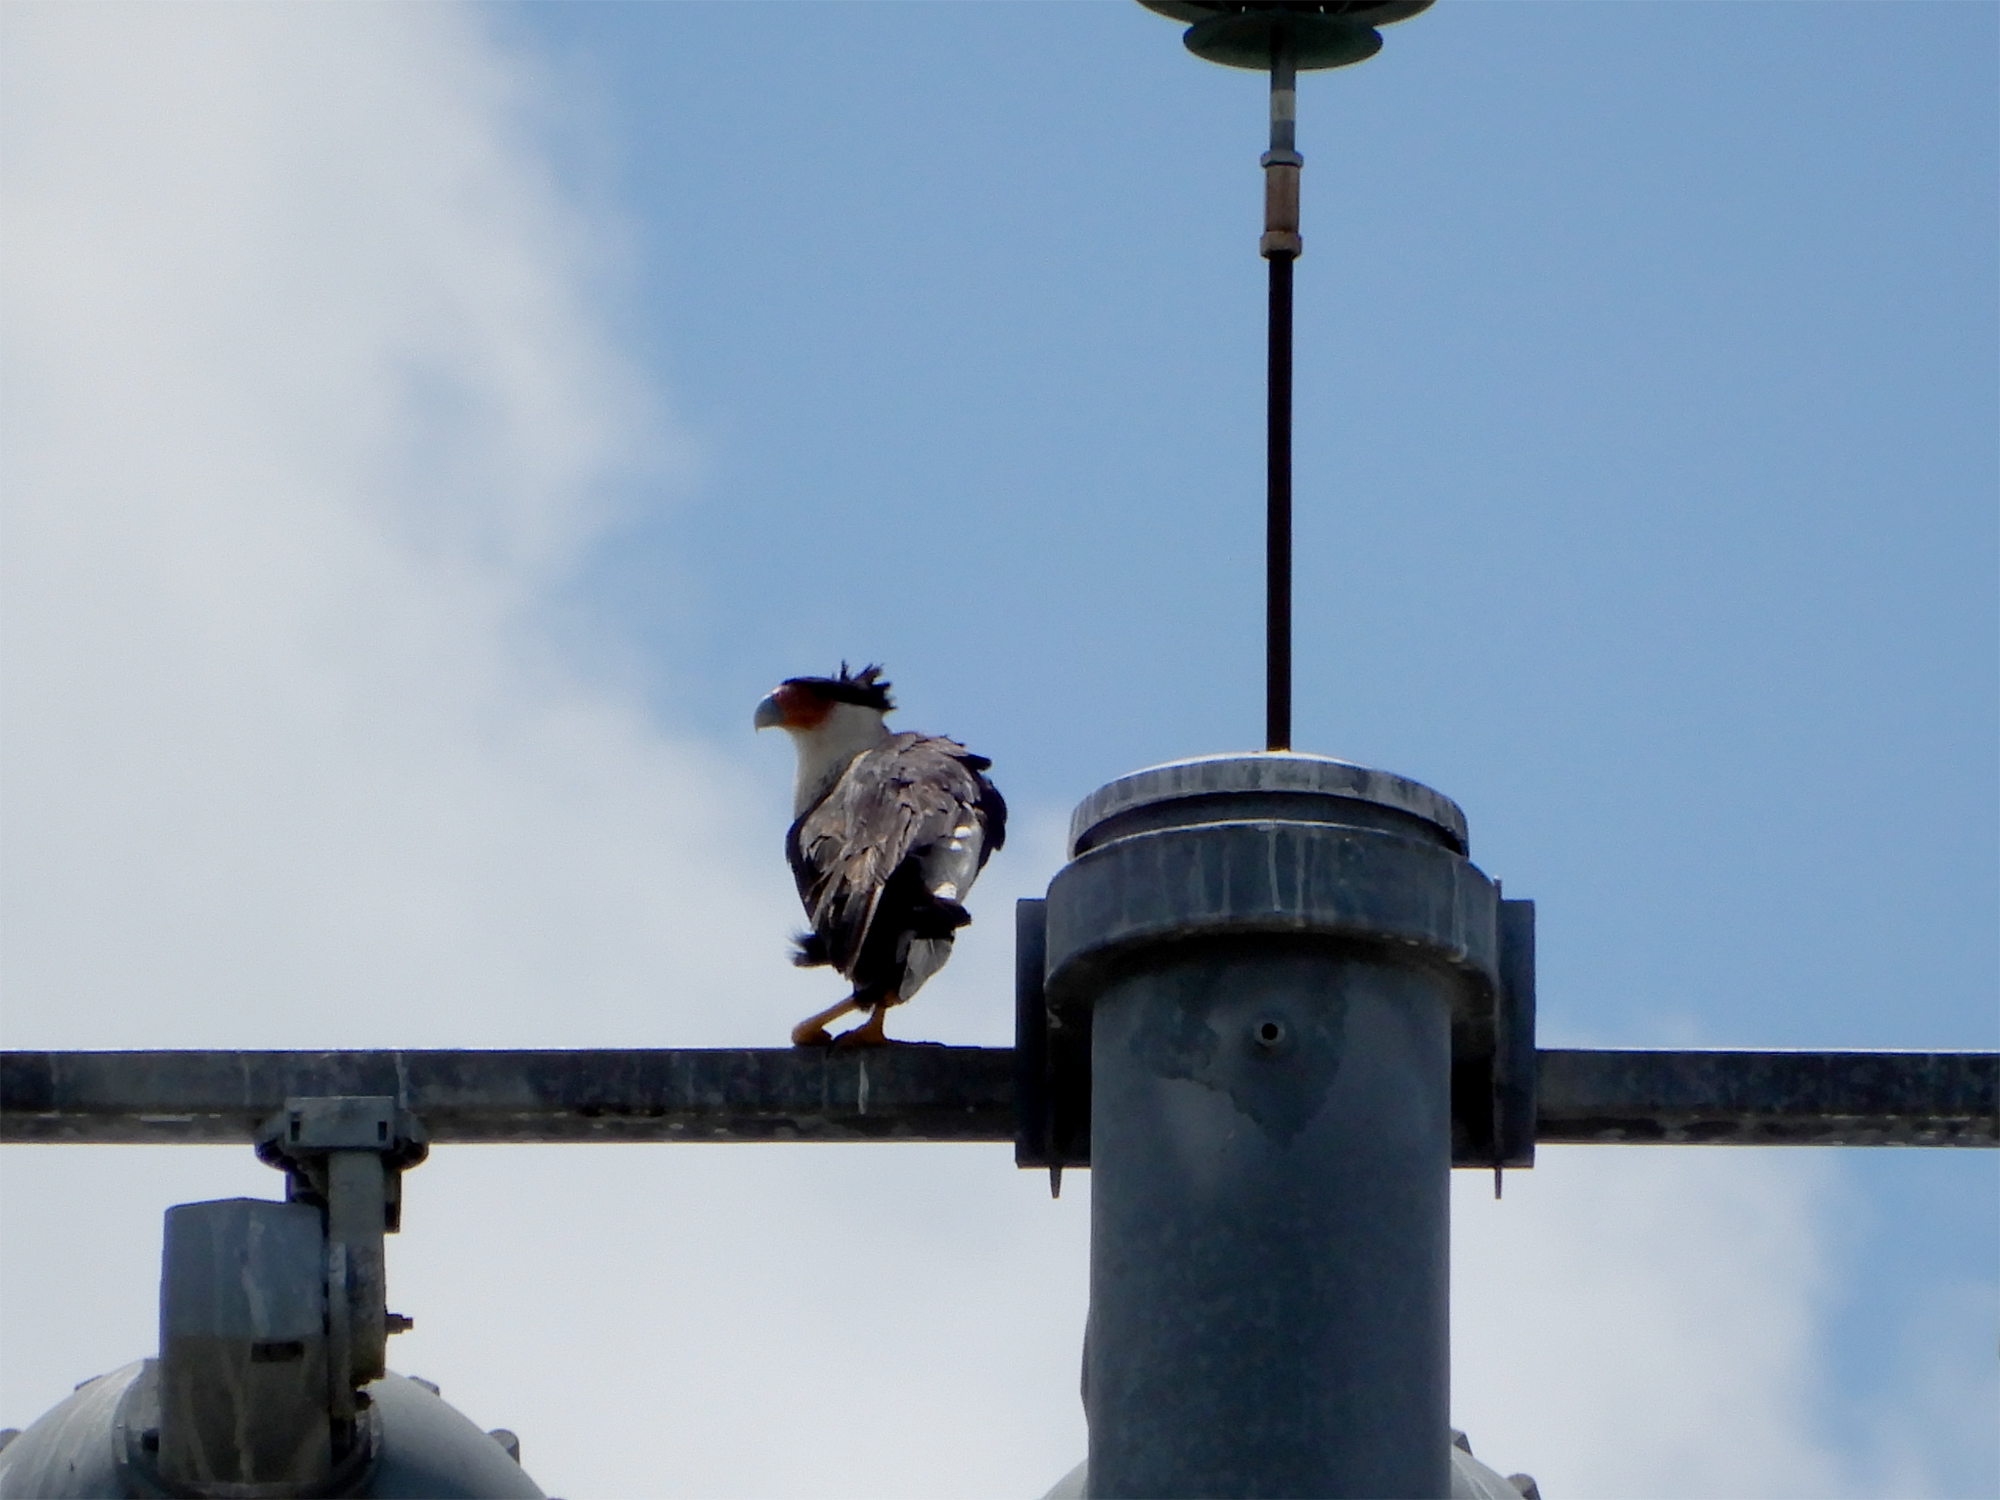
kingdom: Animalia
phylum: Chordata
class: Aves
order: Falconiformes
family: Falconidae
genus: Caracara
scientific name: Caracara plancus
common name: Southern caracara
